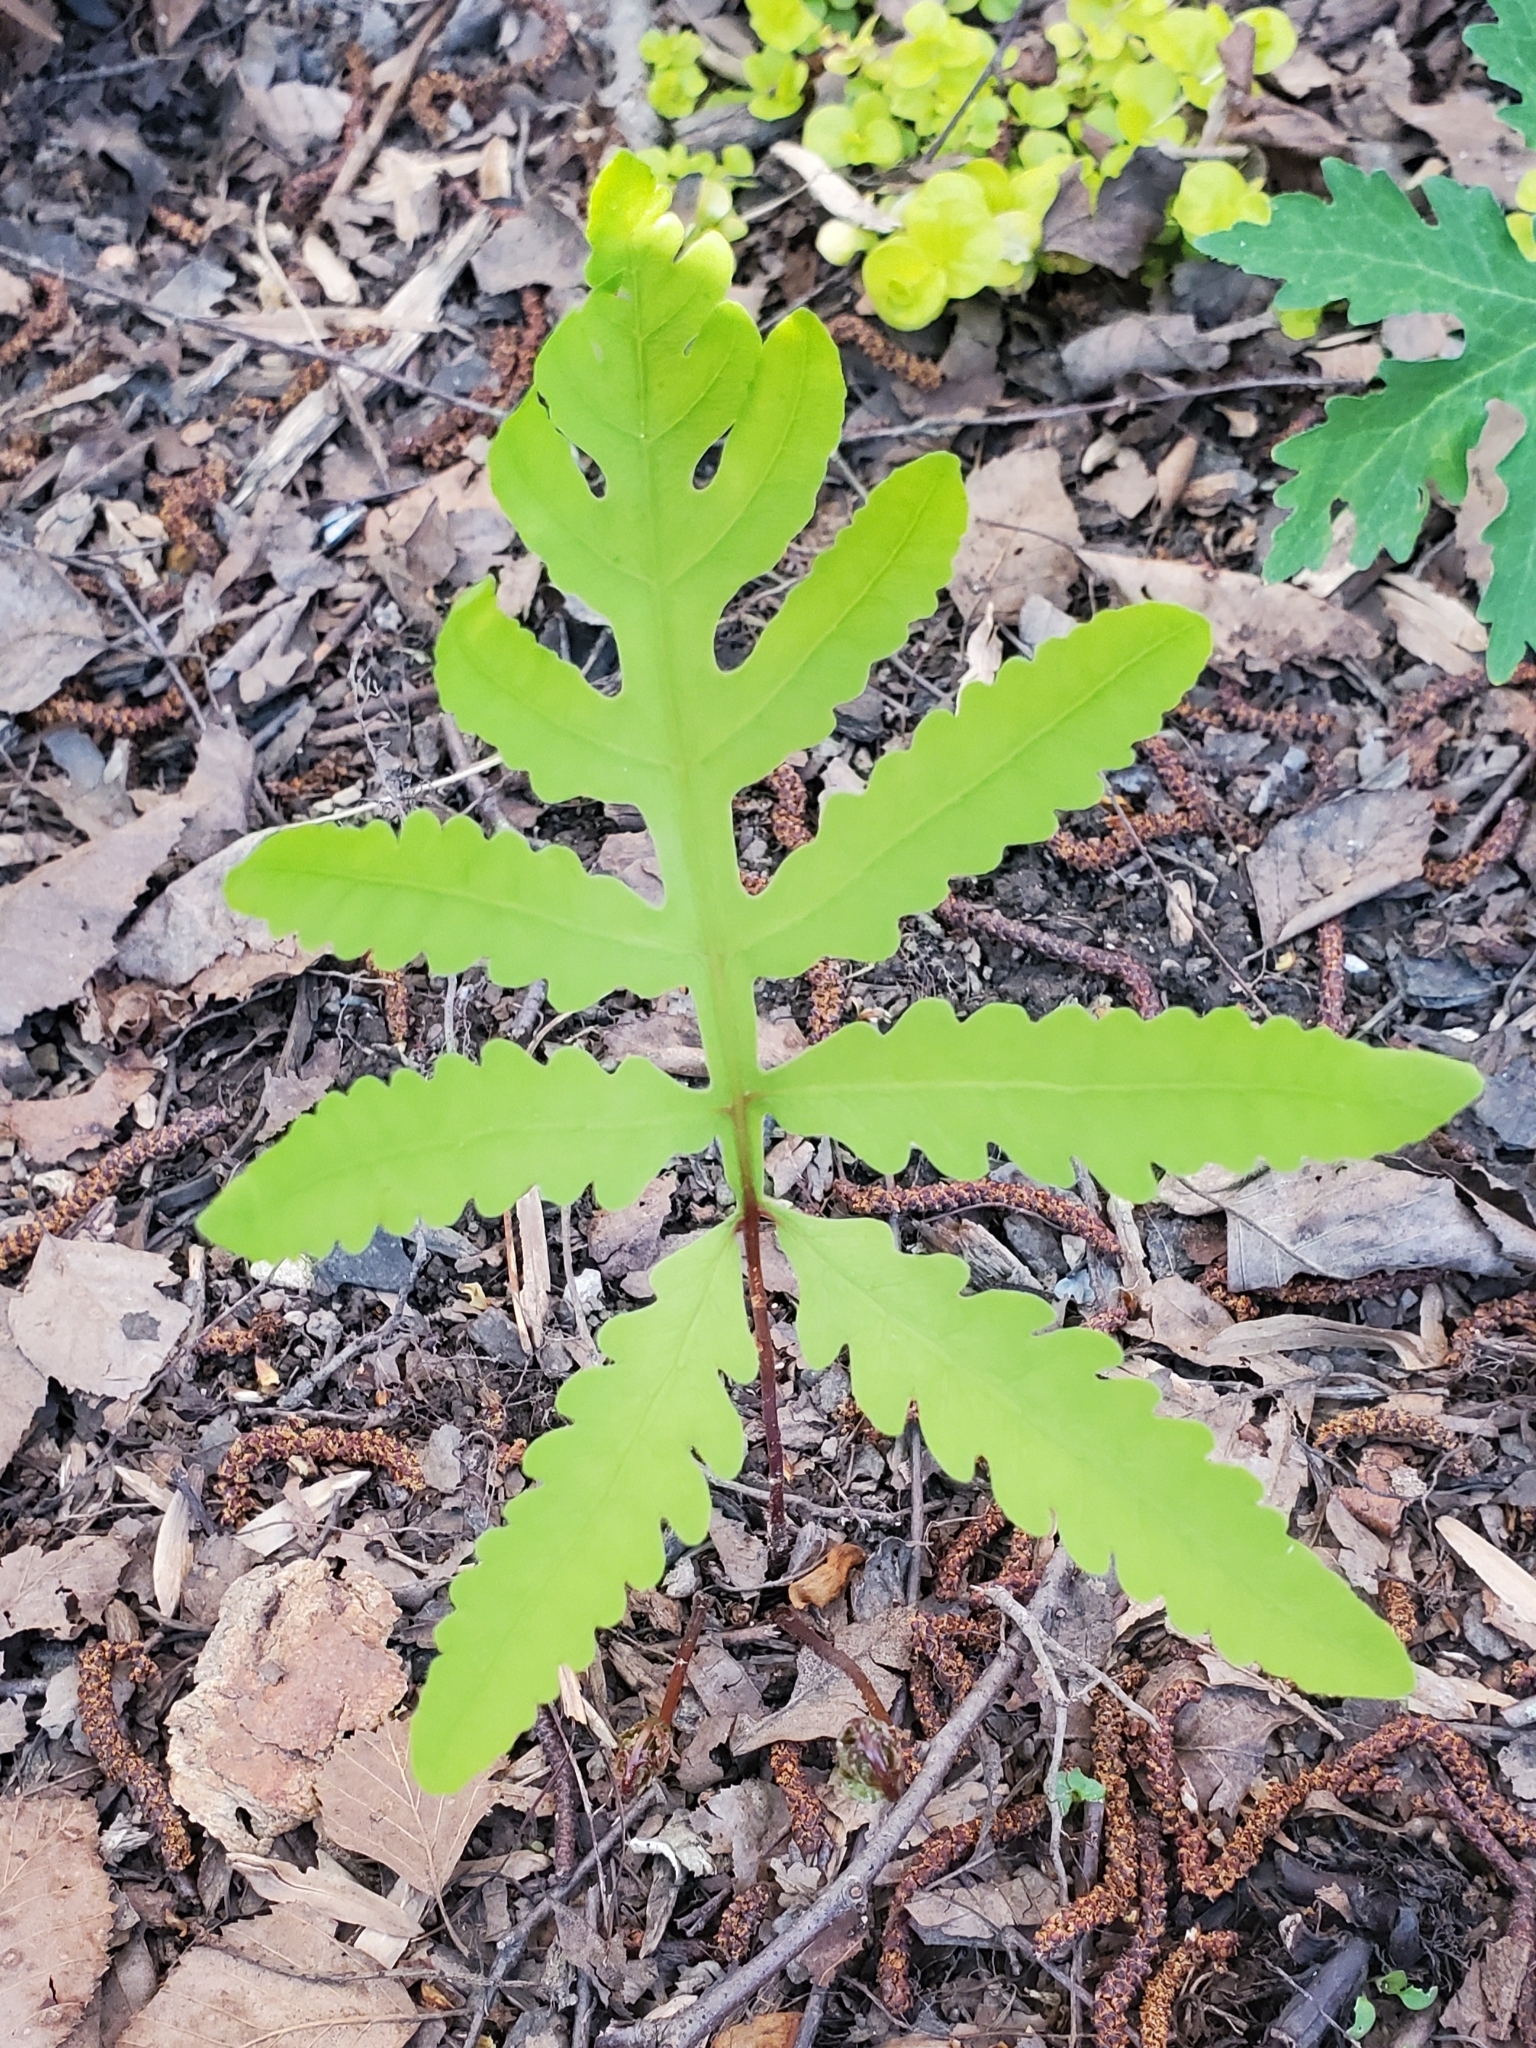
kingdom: Plantae
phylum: Tracheophyta
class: Polypodiopsida
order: Polypodiales
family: Onocleaceae
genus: Onoclea
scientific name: Onoclea sensibilis
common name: Sensitive fern
